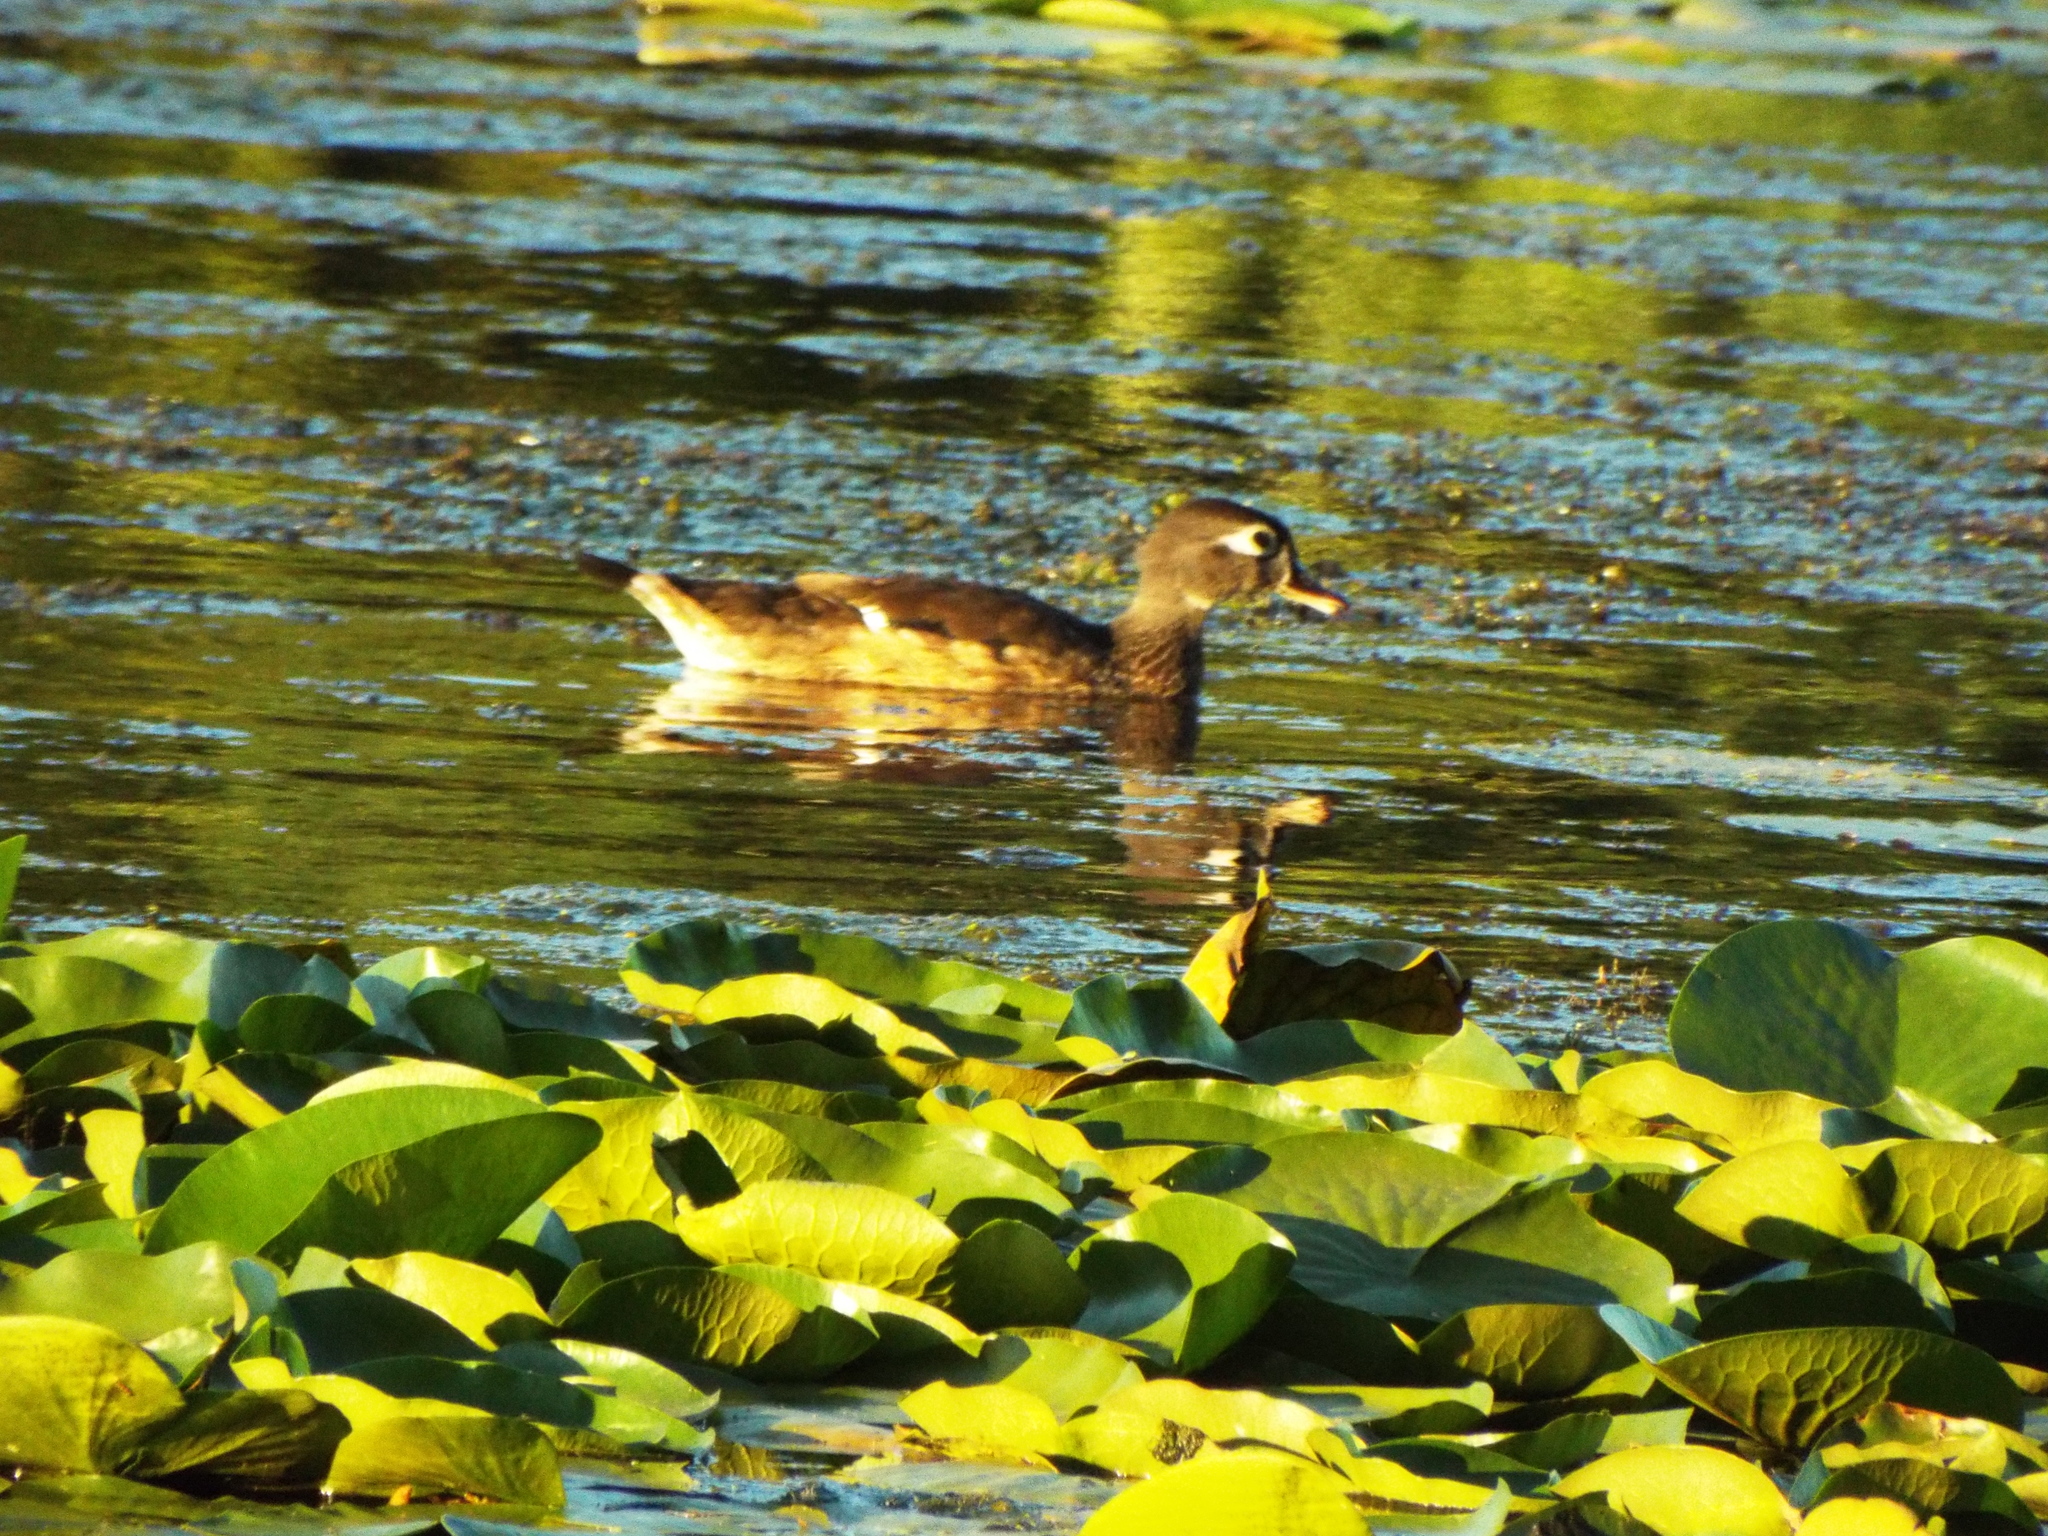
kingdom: Animalia
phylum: Chordata
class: Aves
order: Anseriformes
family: Anatidae
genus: Aix
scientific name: Aix sponsa
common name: Wood duck
